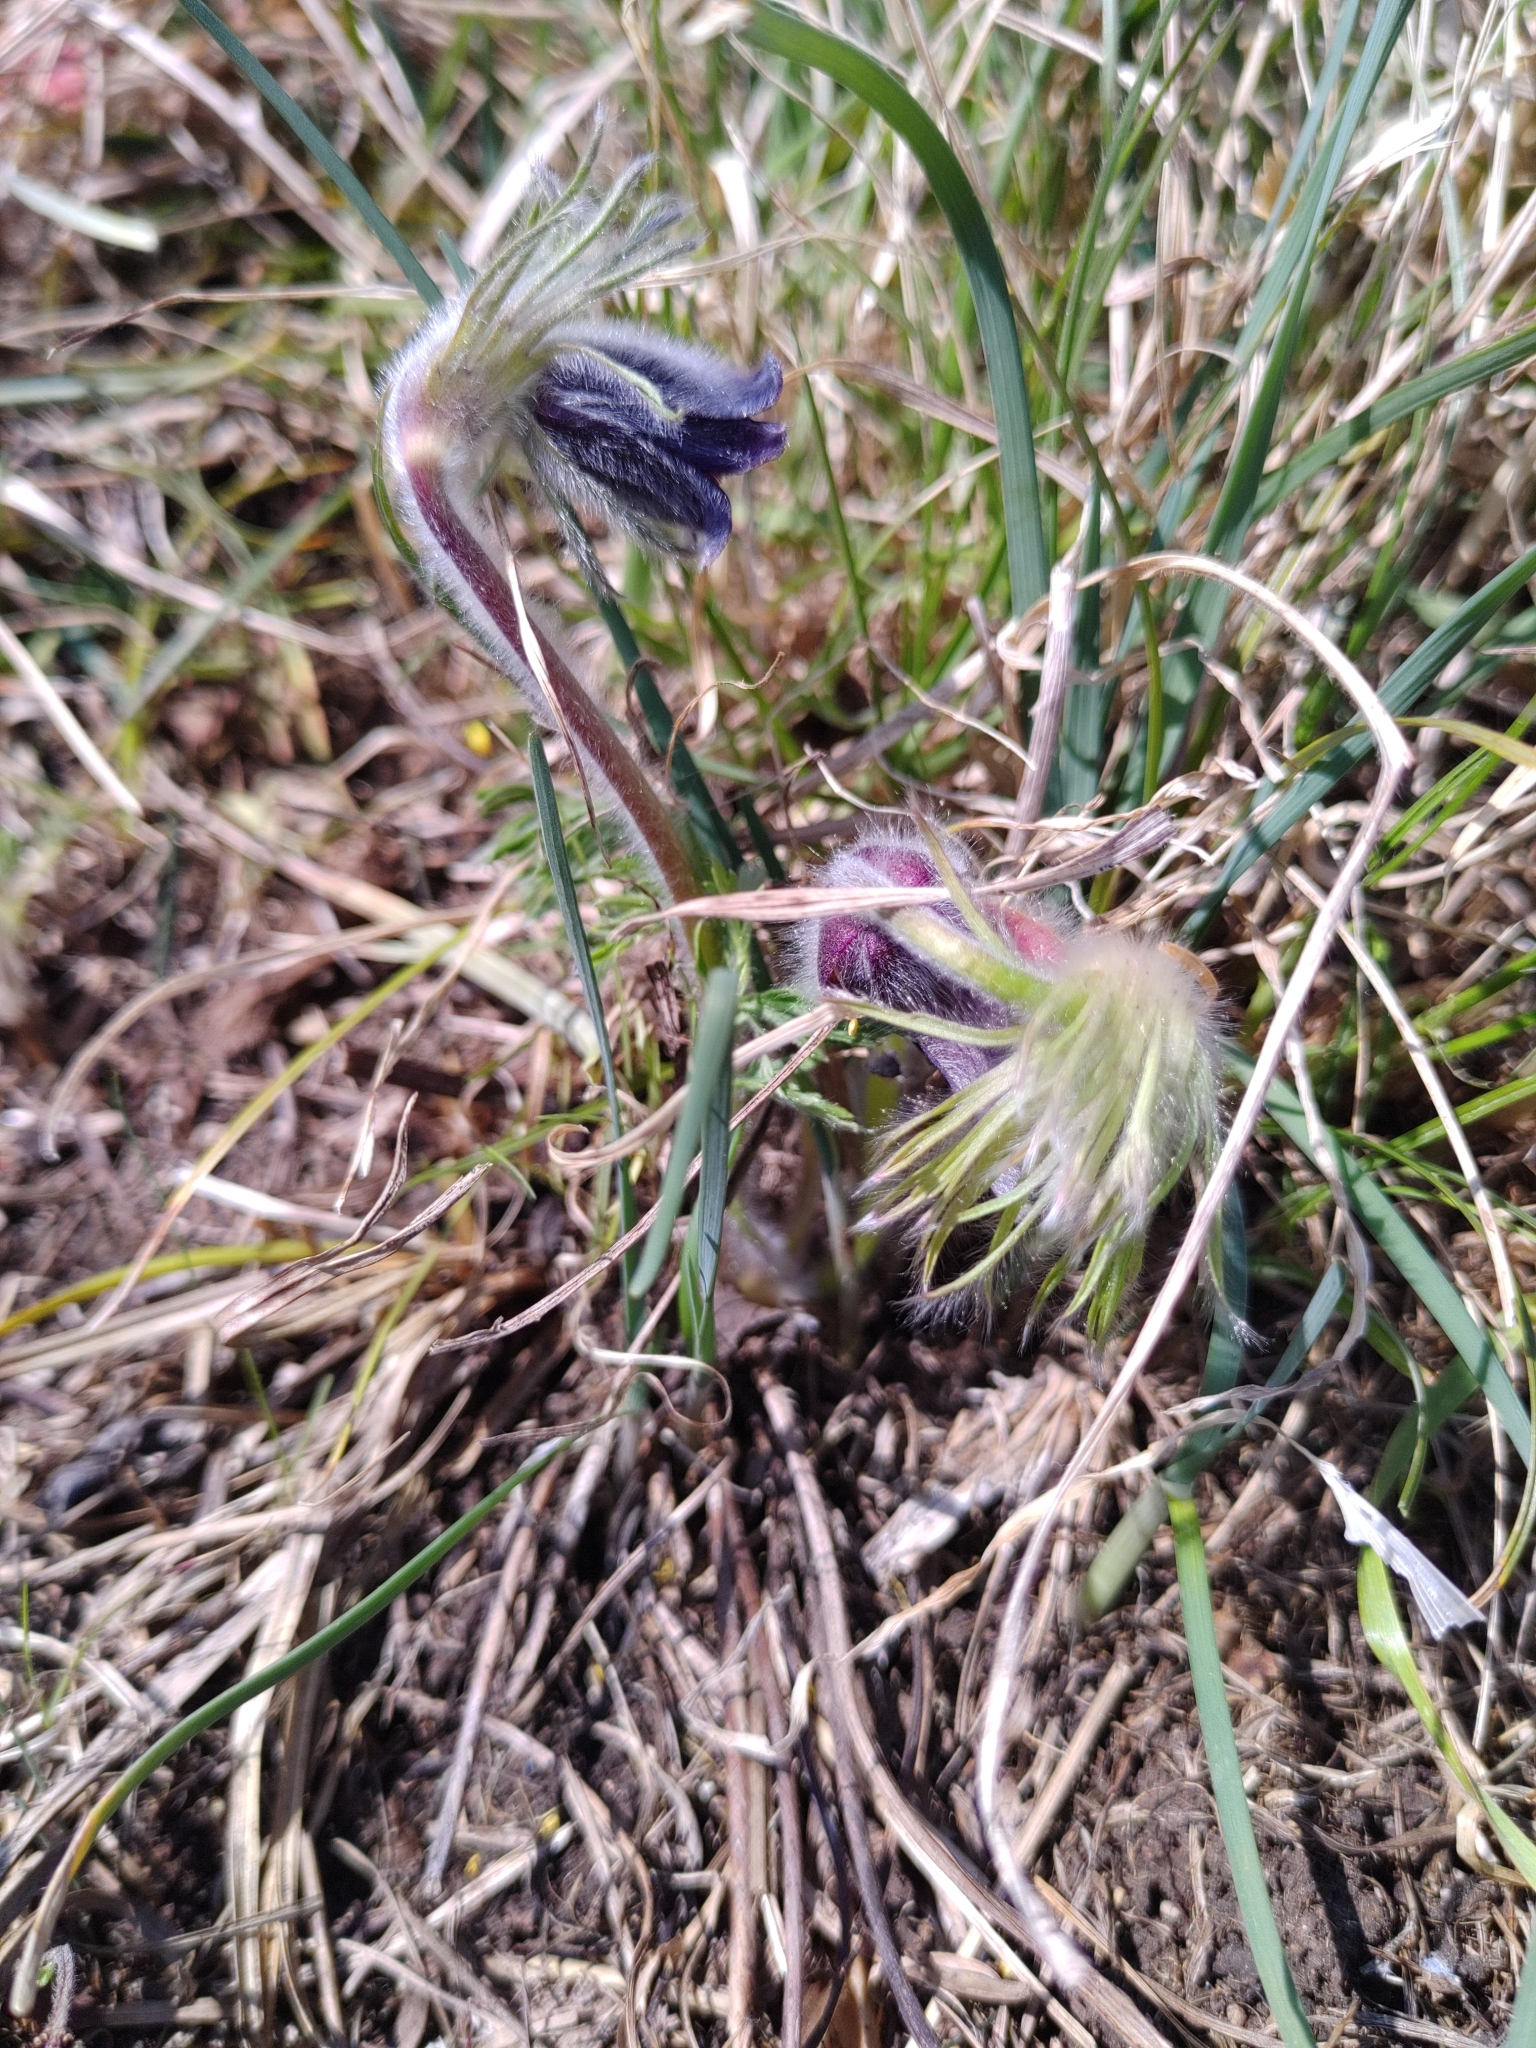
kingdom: Plantae
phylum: Tracheophyta
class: Magnoliopsida
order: Ranunculales
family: Ranunculaceae
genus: Pulsatilla
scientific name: Pulsatilla pratensis
